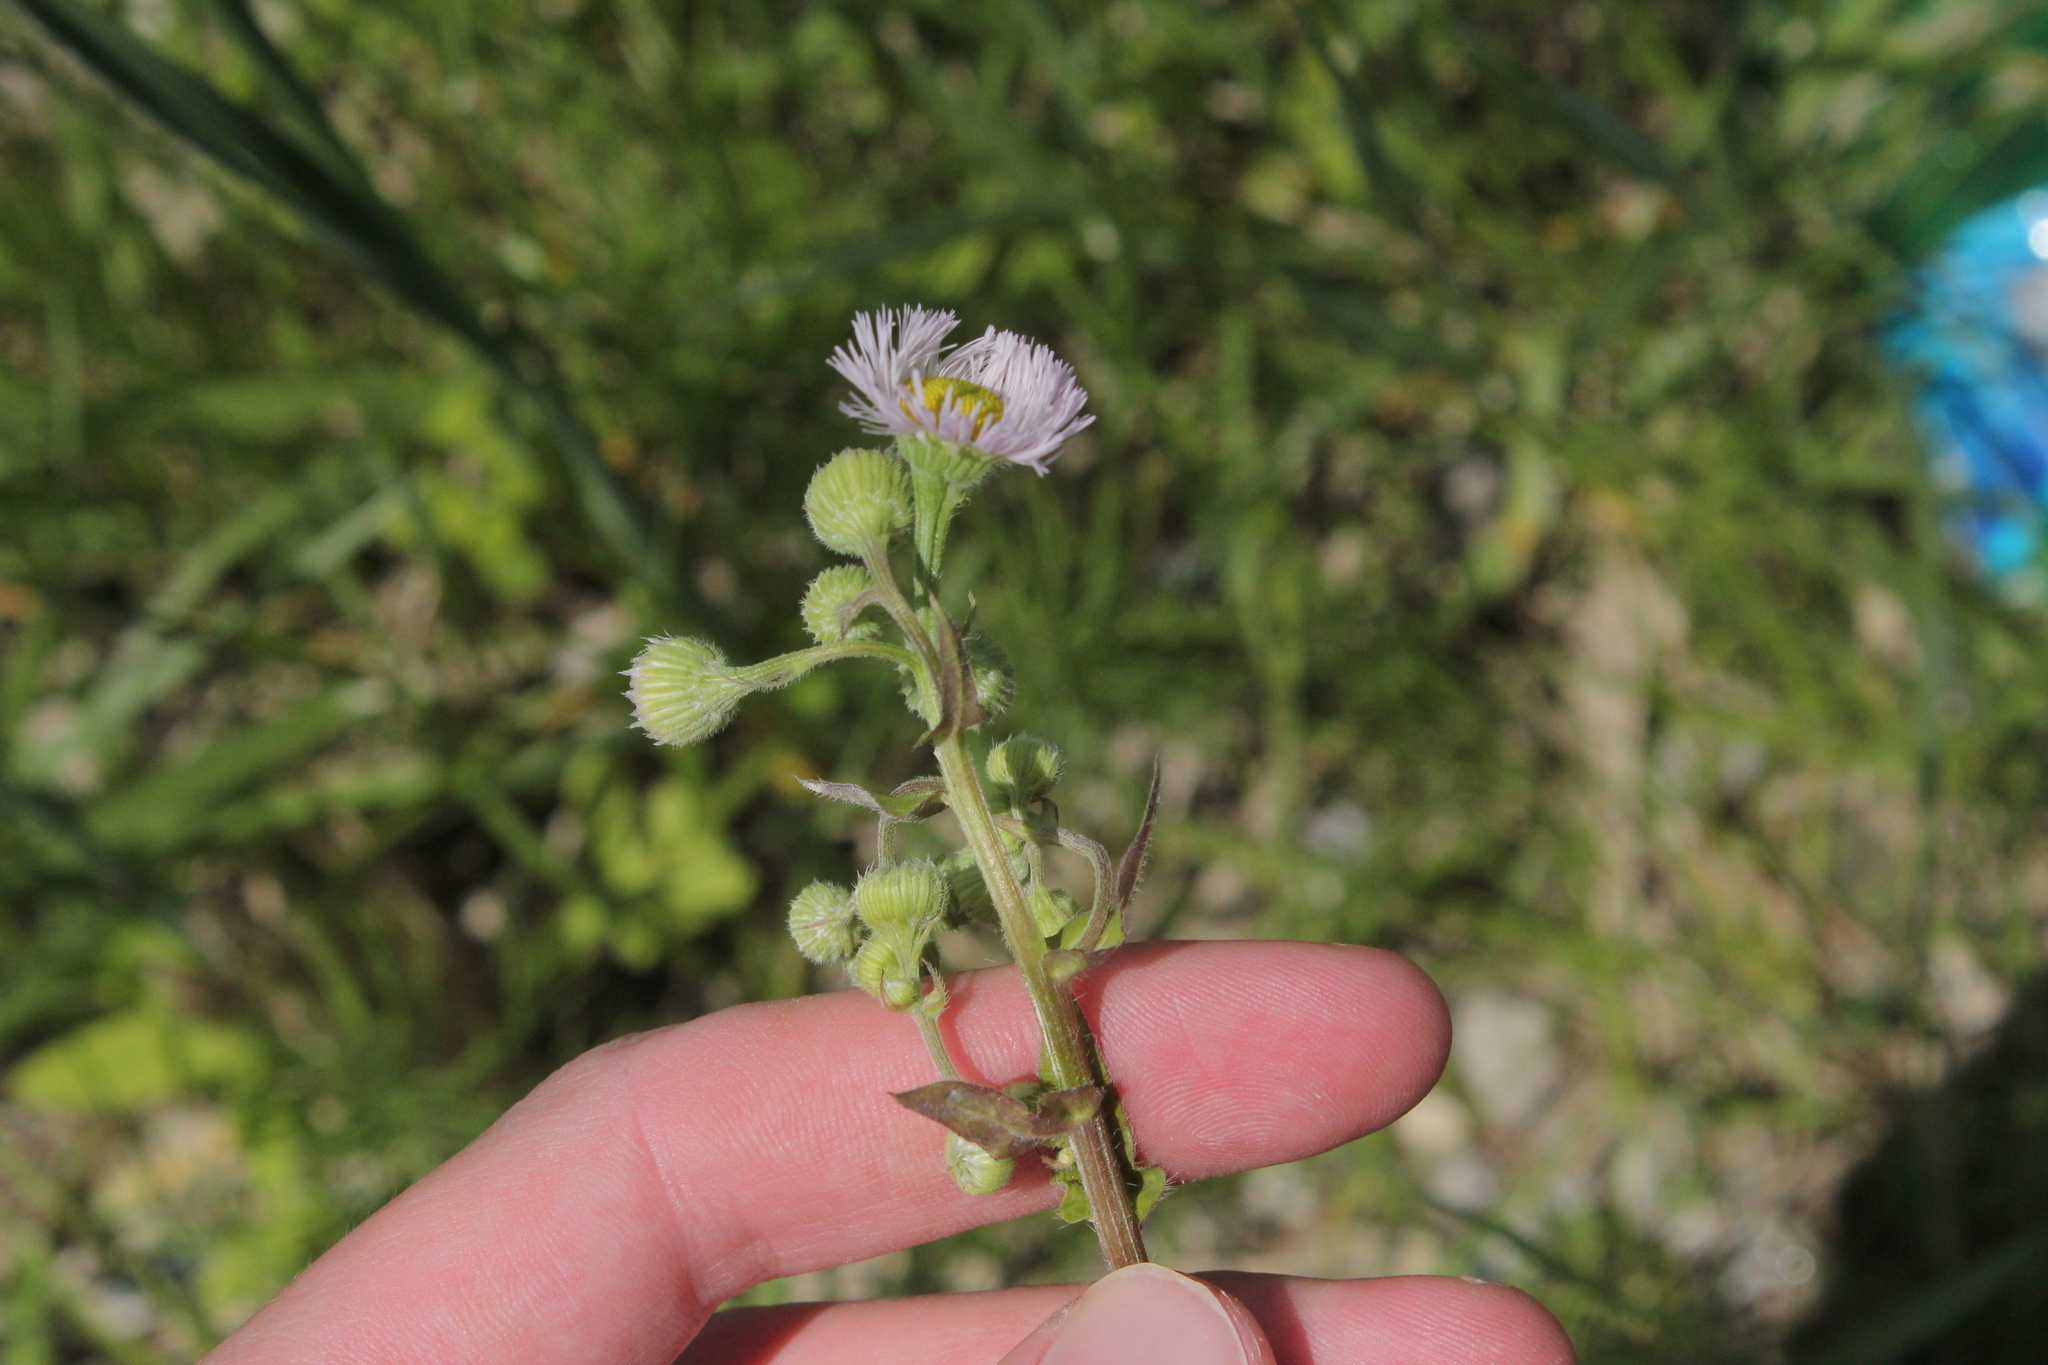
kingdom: Plantae
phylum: Tracheophyta
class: Magnoliopsida
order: Asterales
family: Asteraceae
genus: Erigeron
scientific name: Erigeron philadelphicus
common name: Robin's-plantain
